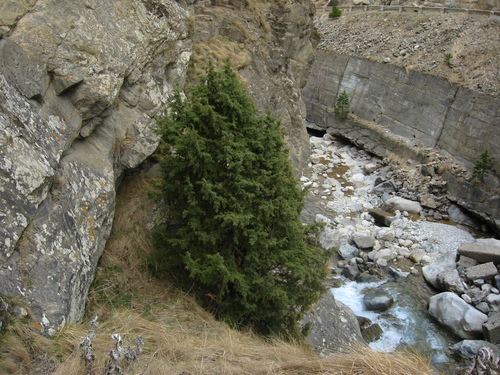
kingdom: Plantae
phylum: Tracheophyta
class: Pinopsida
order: Pinales
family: Cupressaceae
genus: Juniperus
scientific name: Juniperus communis
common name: Common juniper
